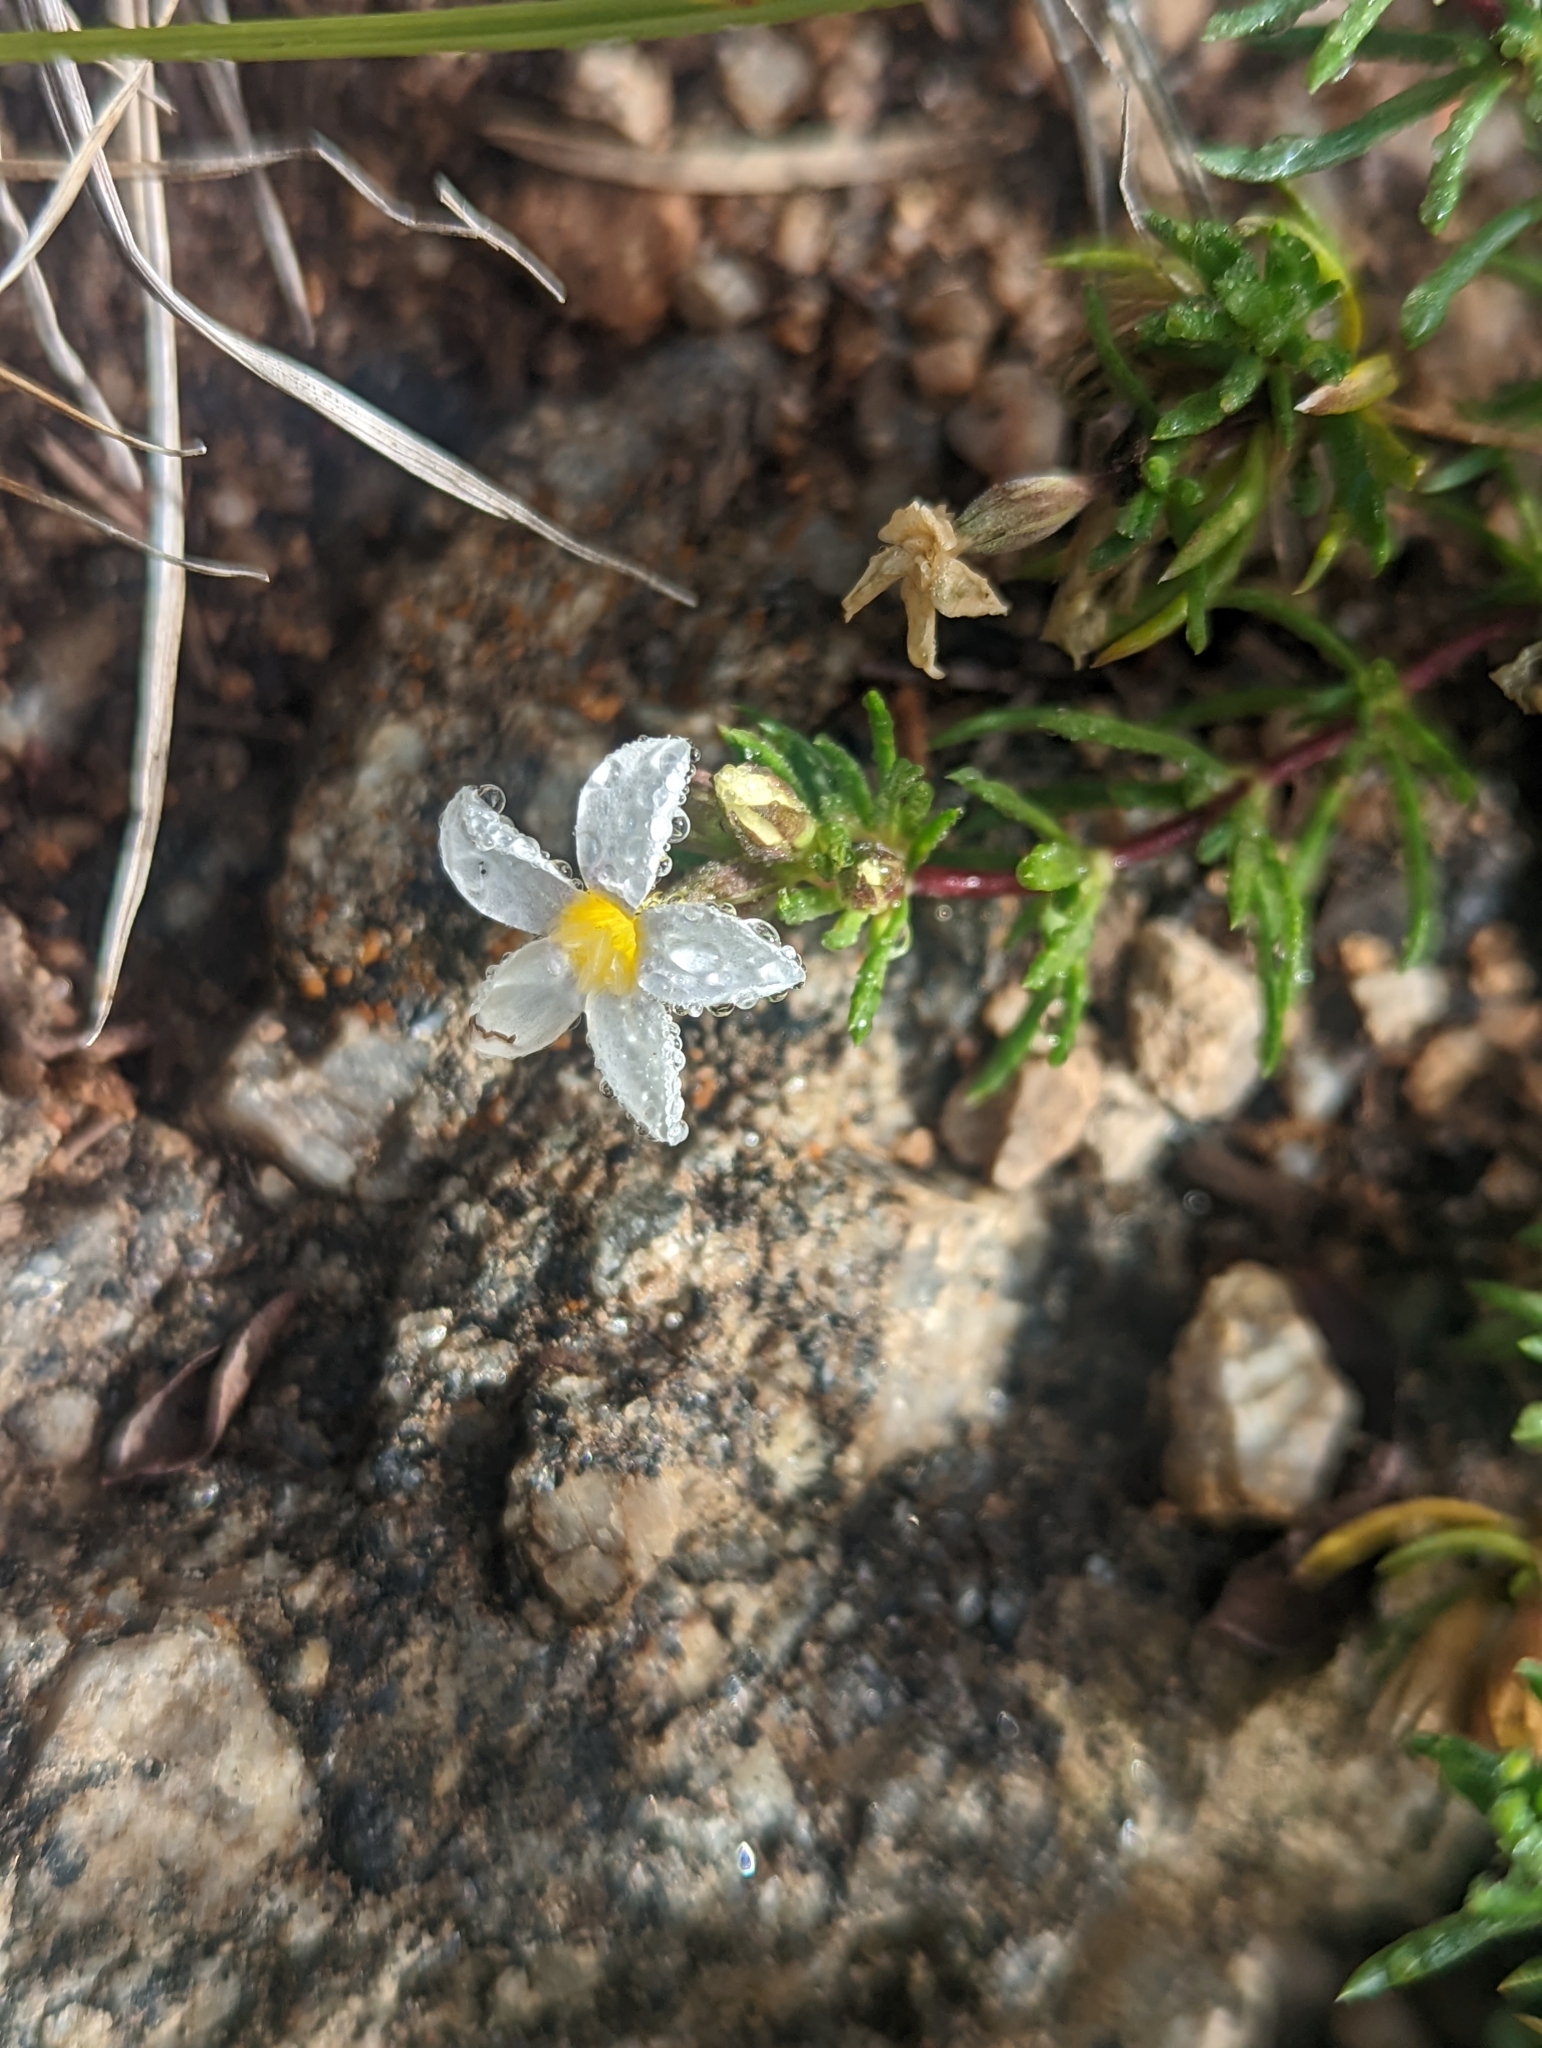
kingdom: Plantae
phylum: Tracheophyta
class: Magnoliopsida
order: Ericales
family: Polemoniaceae
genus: Leptosiphon
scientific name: Leptosiphon nuttallii
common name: Nuttall's linanthus
